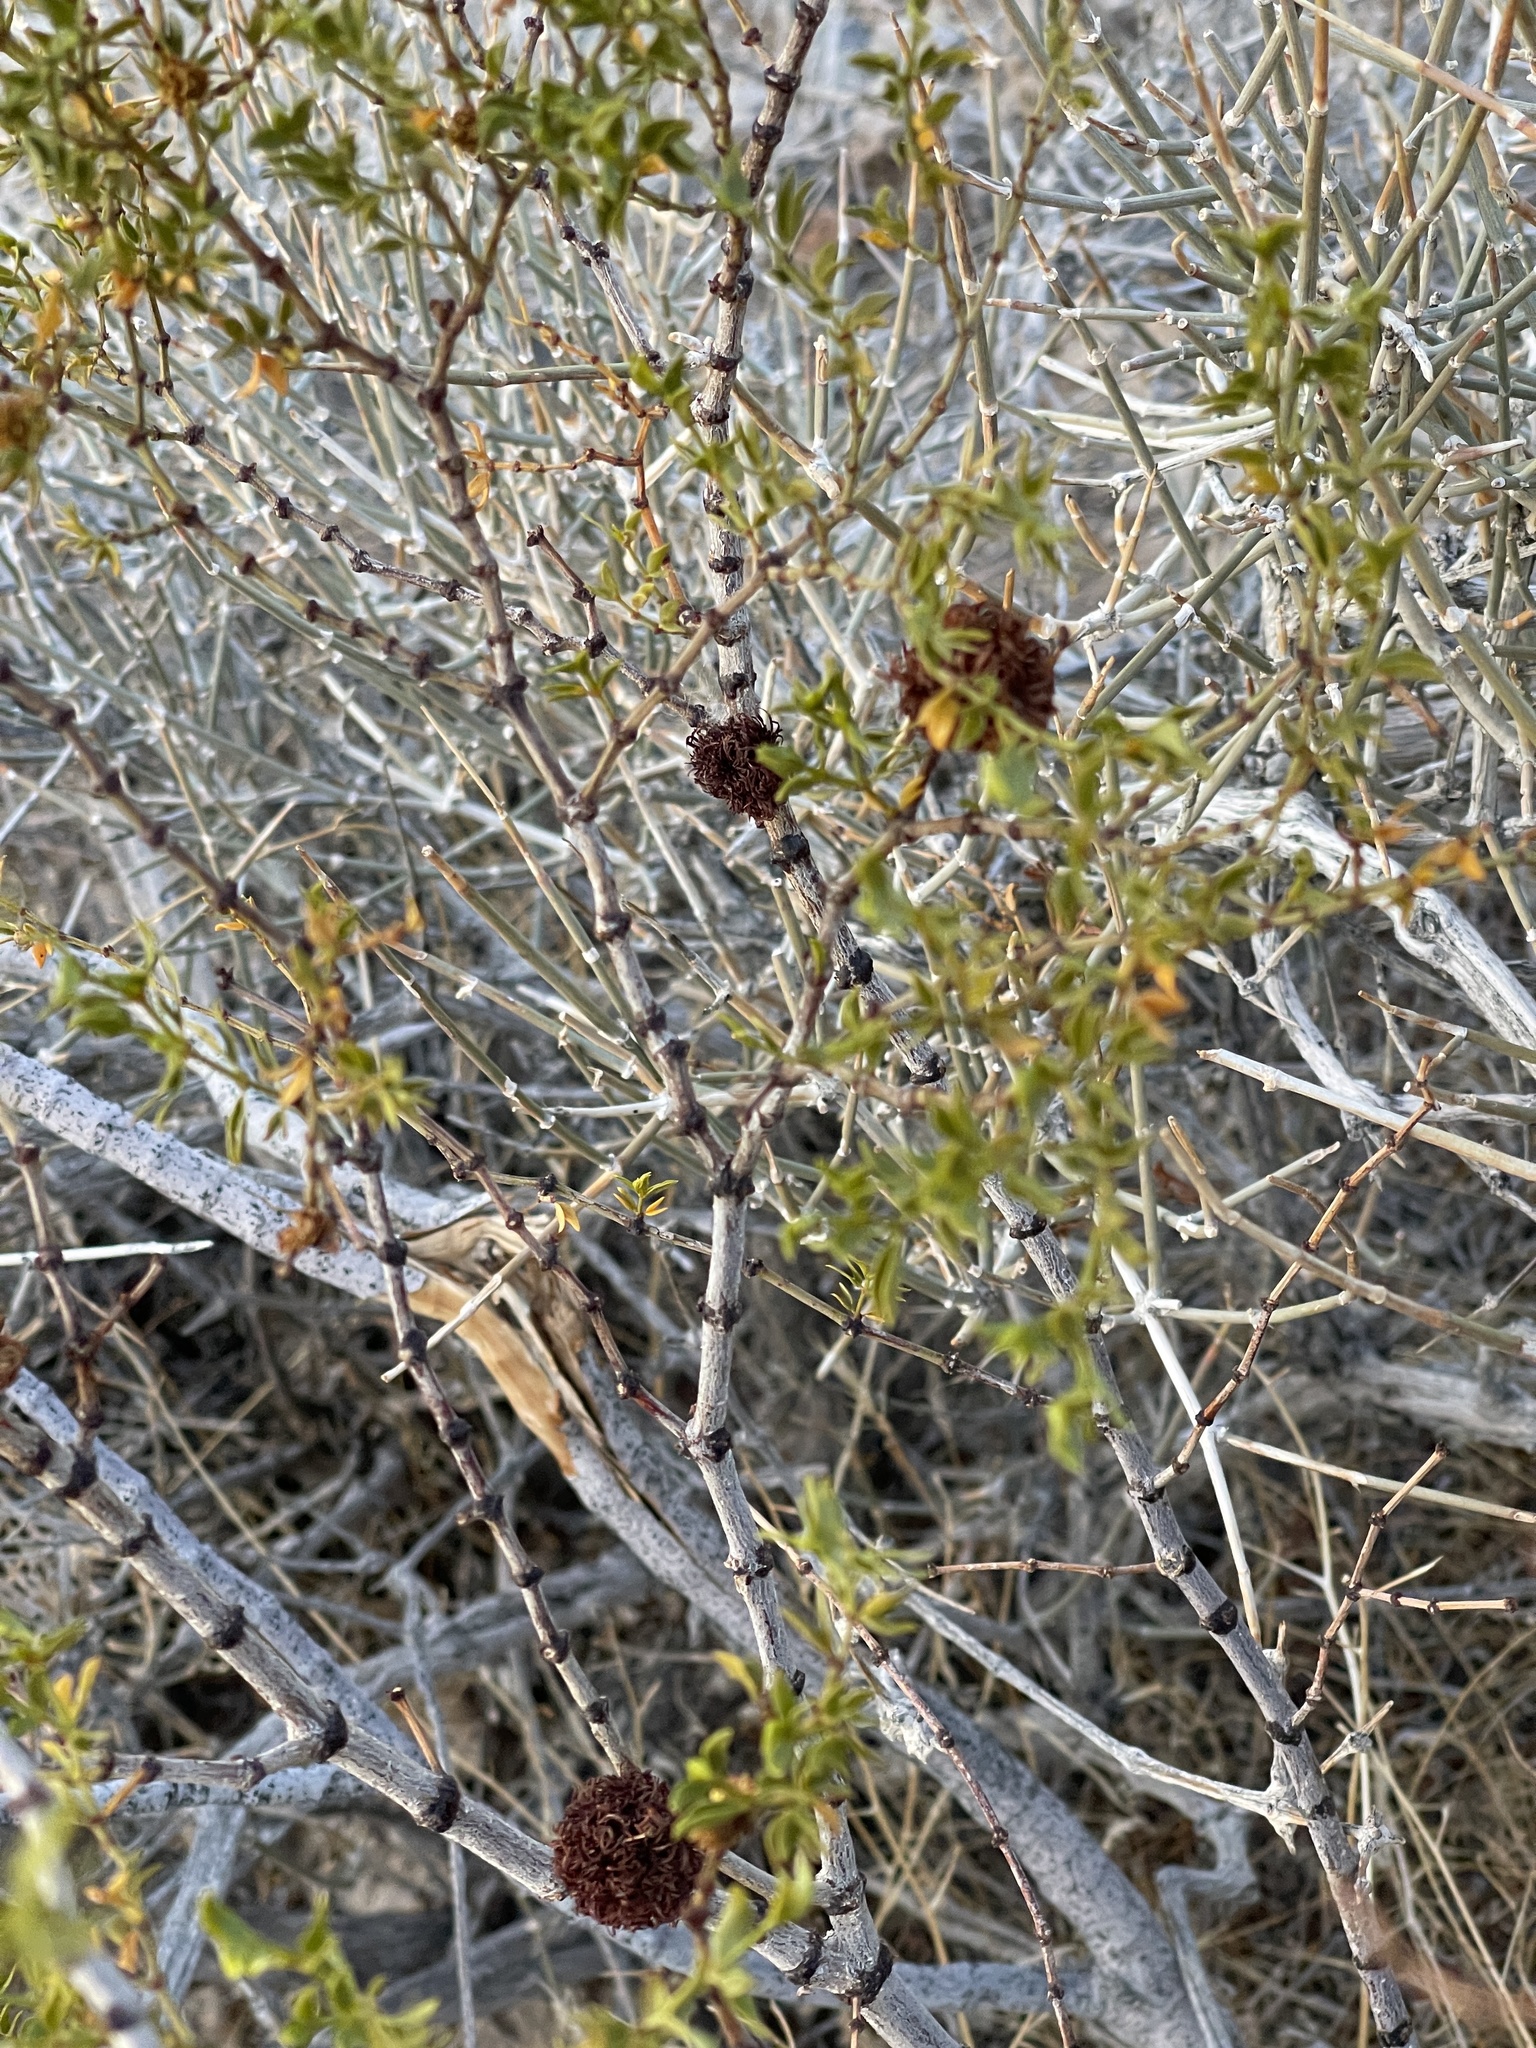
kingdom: Animalia
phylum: Arthropoda
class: Insecta
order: Diptera
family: Cecidomyiidae
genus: Asphondylia
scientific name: Asphondylia auripila
